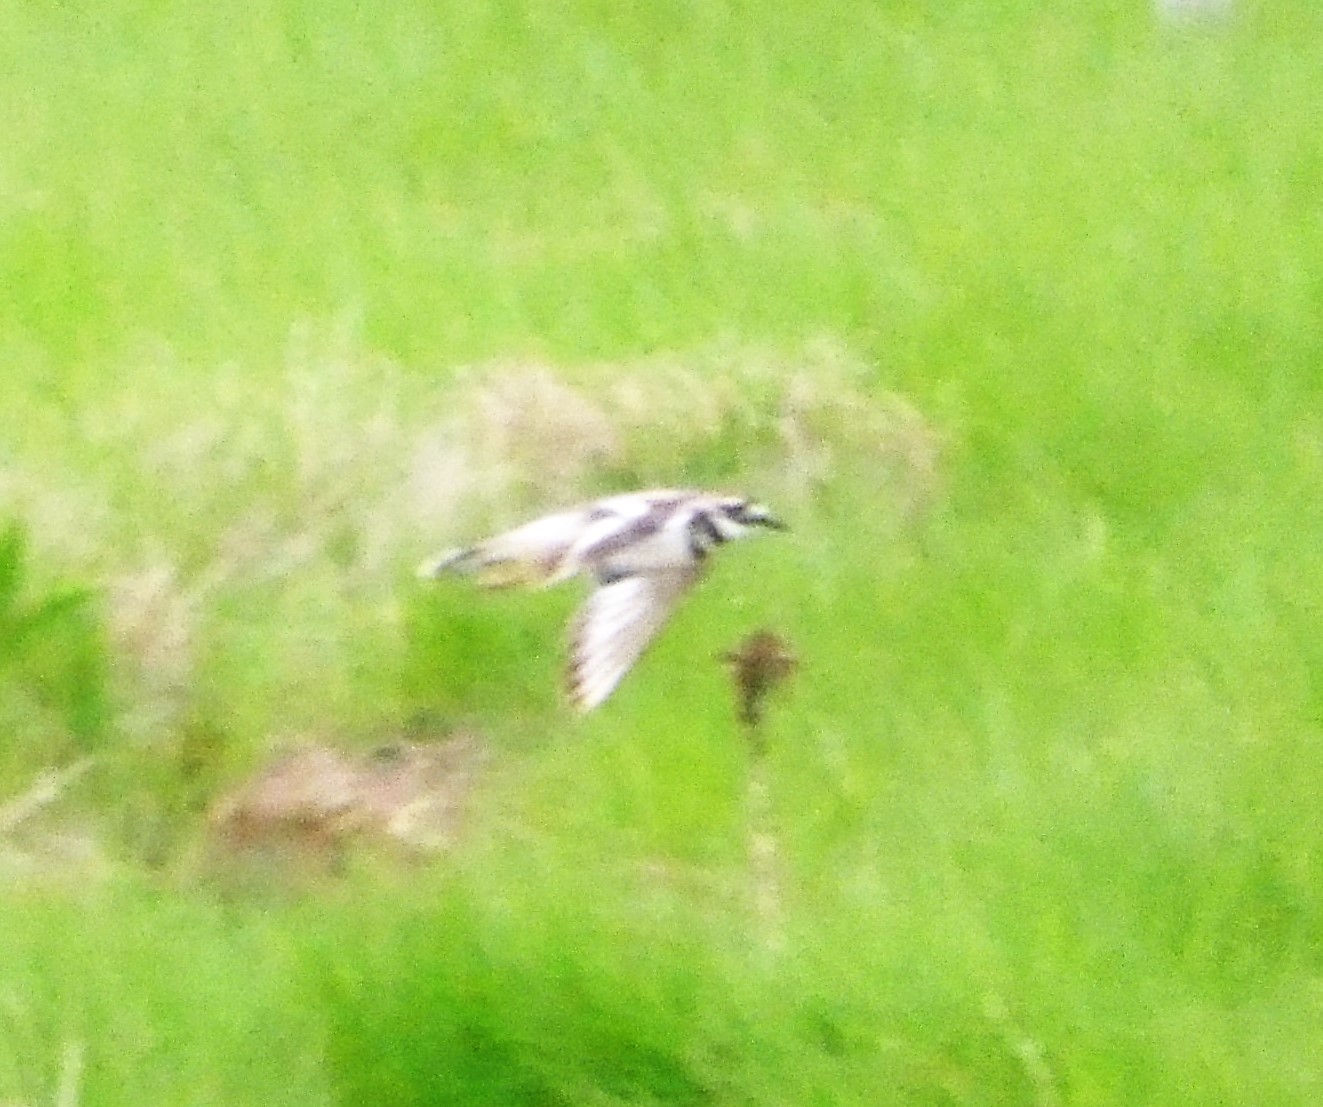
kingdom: Animalia
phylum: Chordata
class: Aves
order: Charadriiformes
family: Charadriidae
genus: Charadrius
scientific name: Charadrius vociferus
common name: Killdeer
